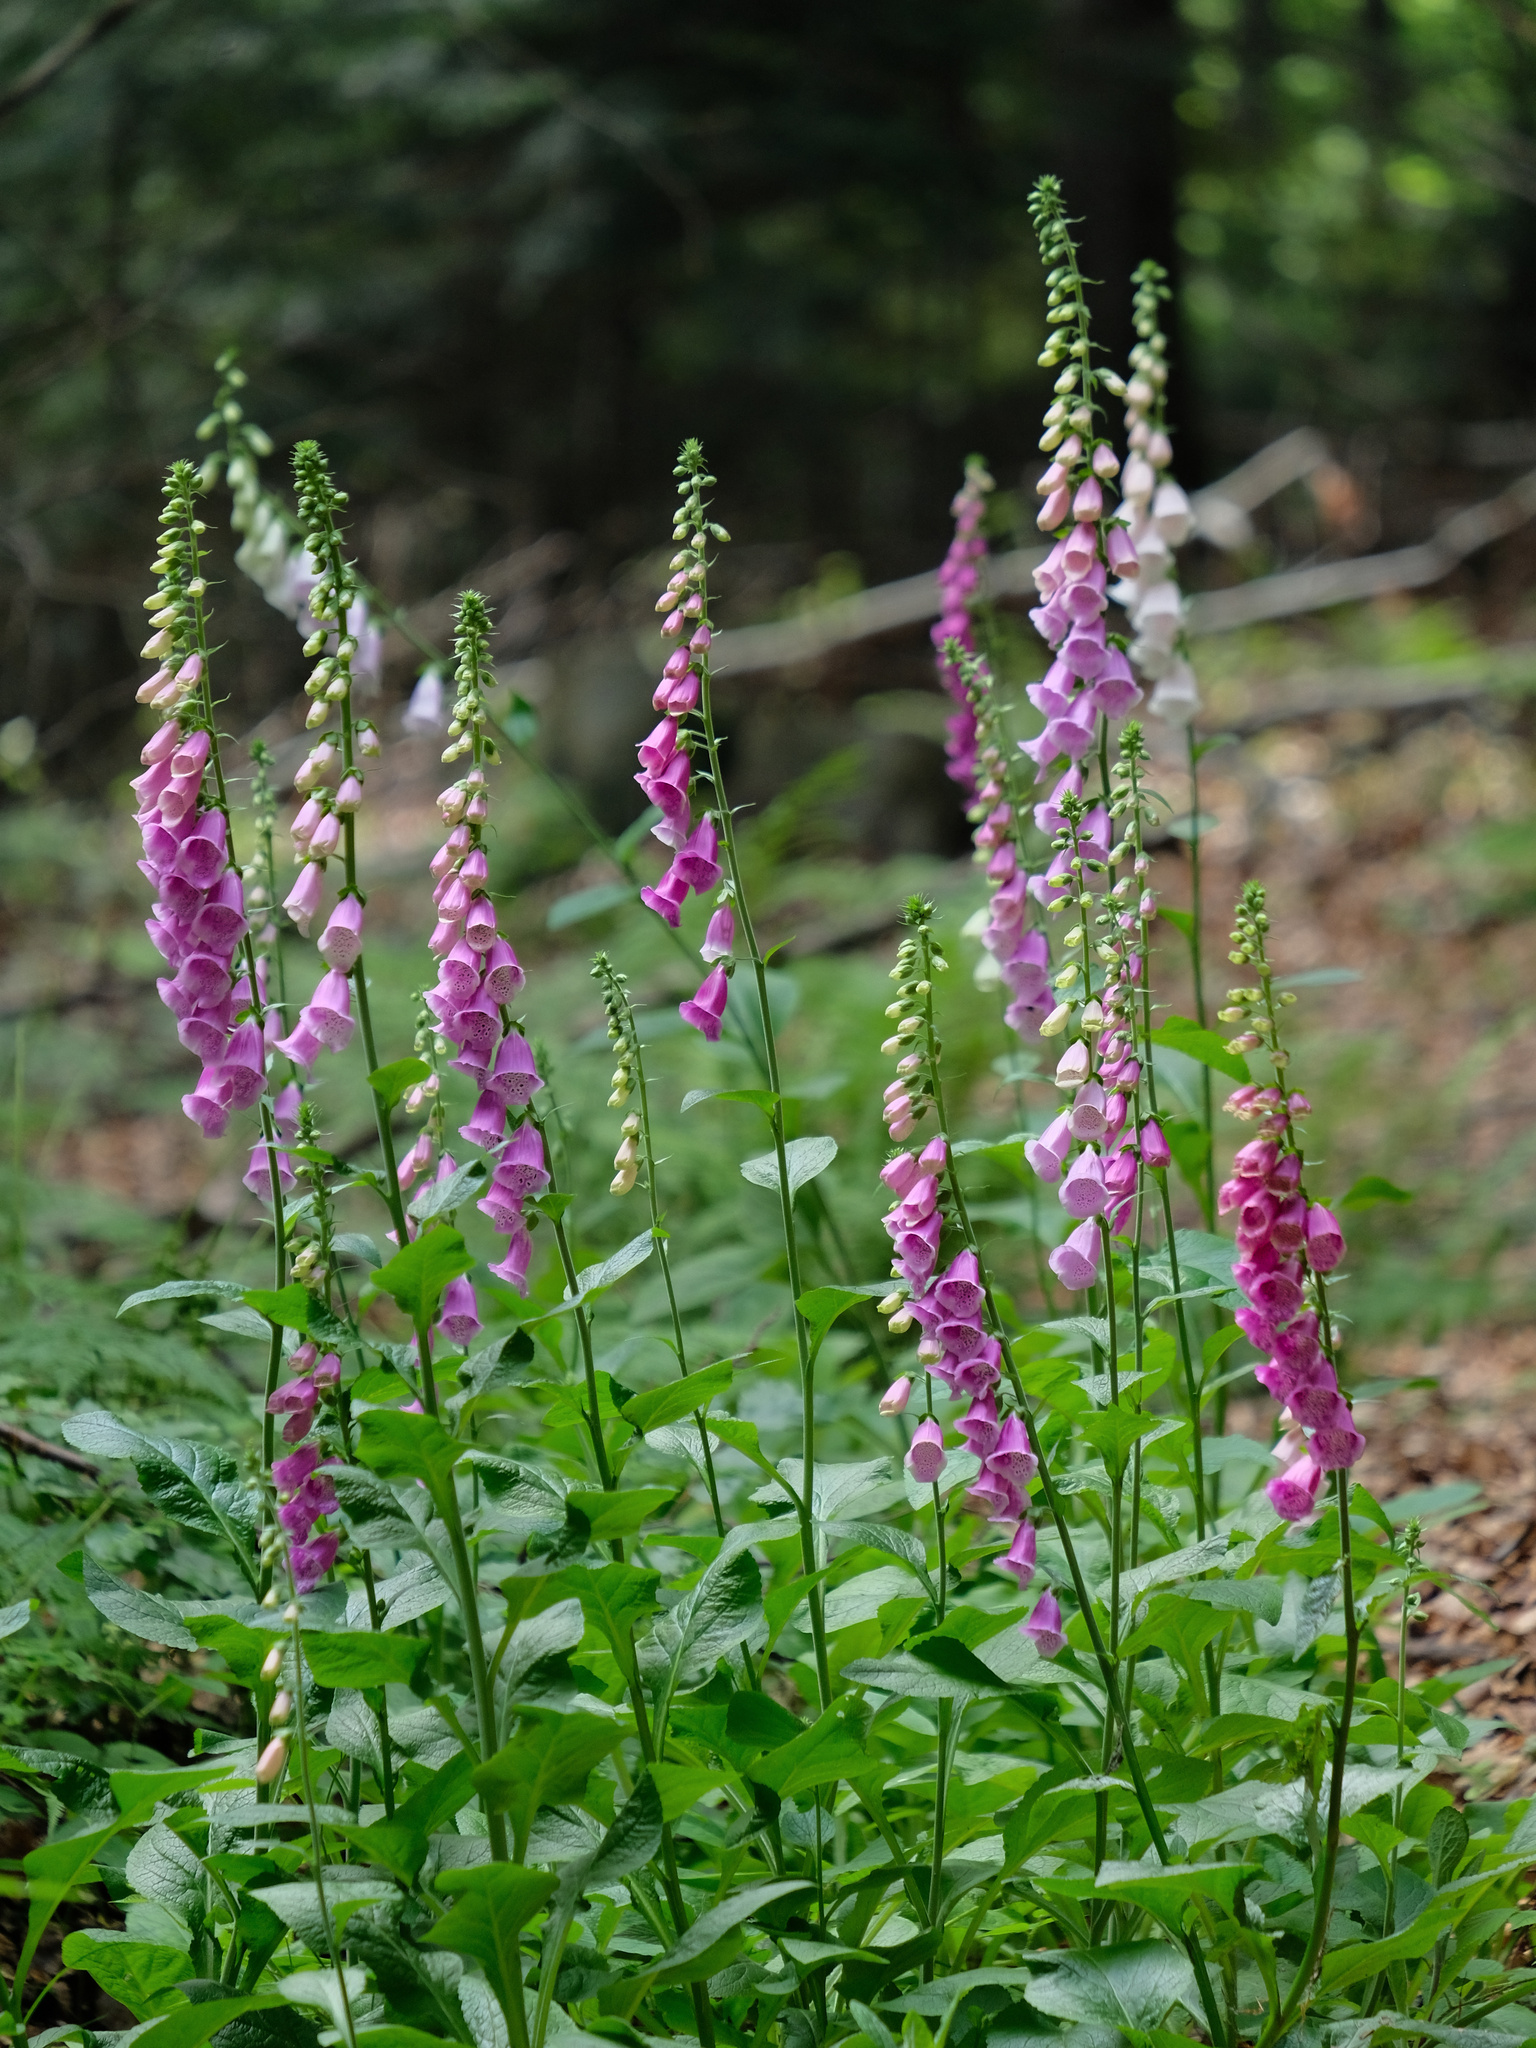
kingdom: Plantae
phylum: Tracheophyta
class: Magnoliopsida
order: Lamiales
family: Plantaginaceae
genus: Digitalis
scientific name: Digitalis purpurea
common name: Foxglove
